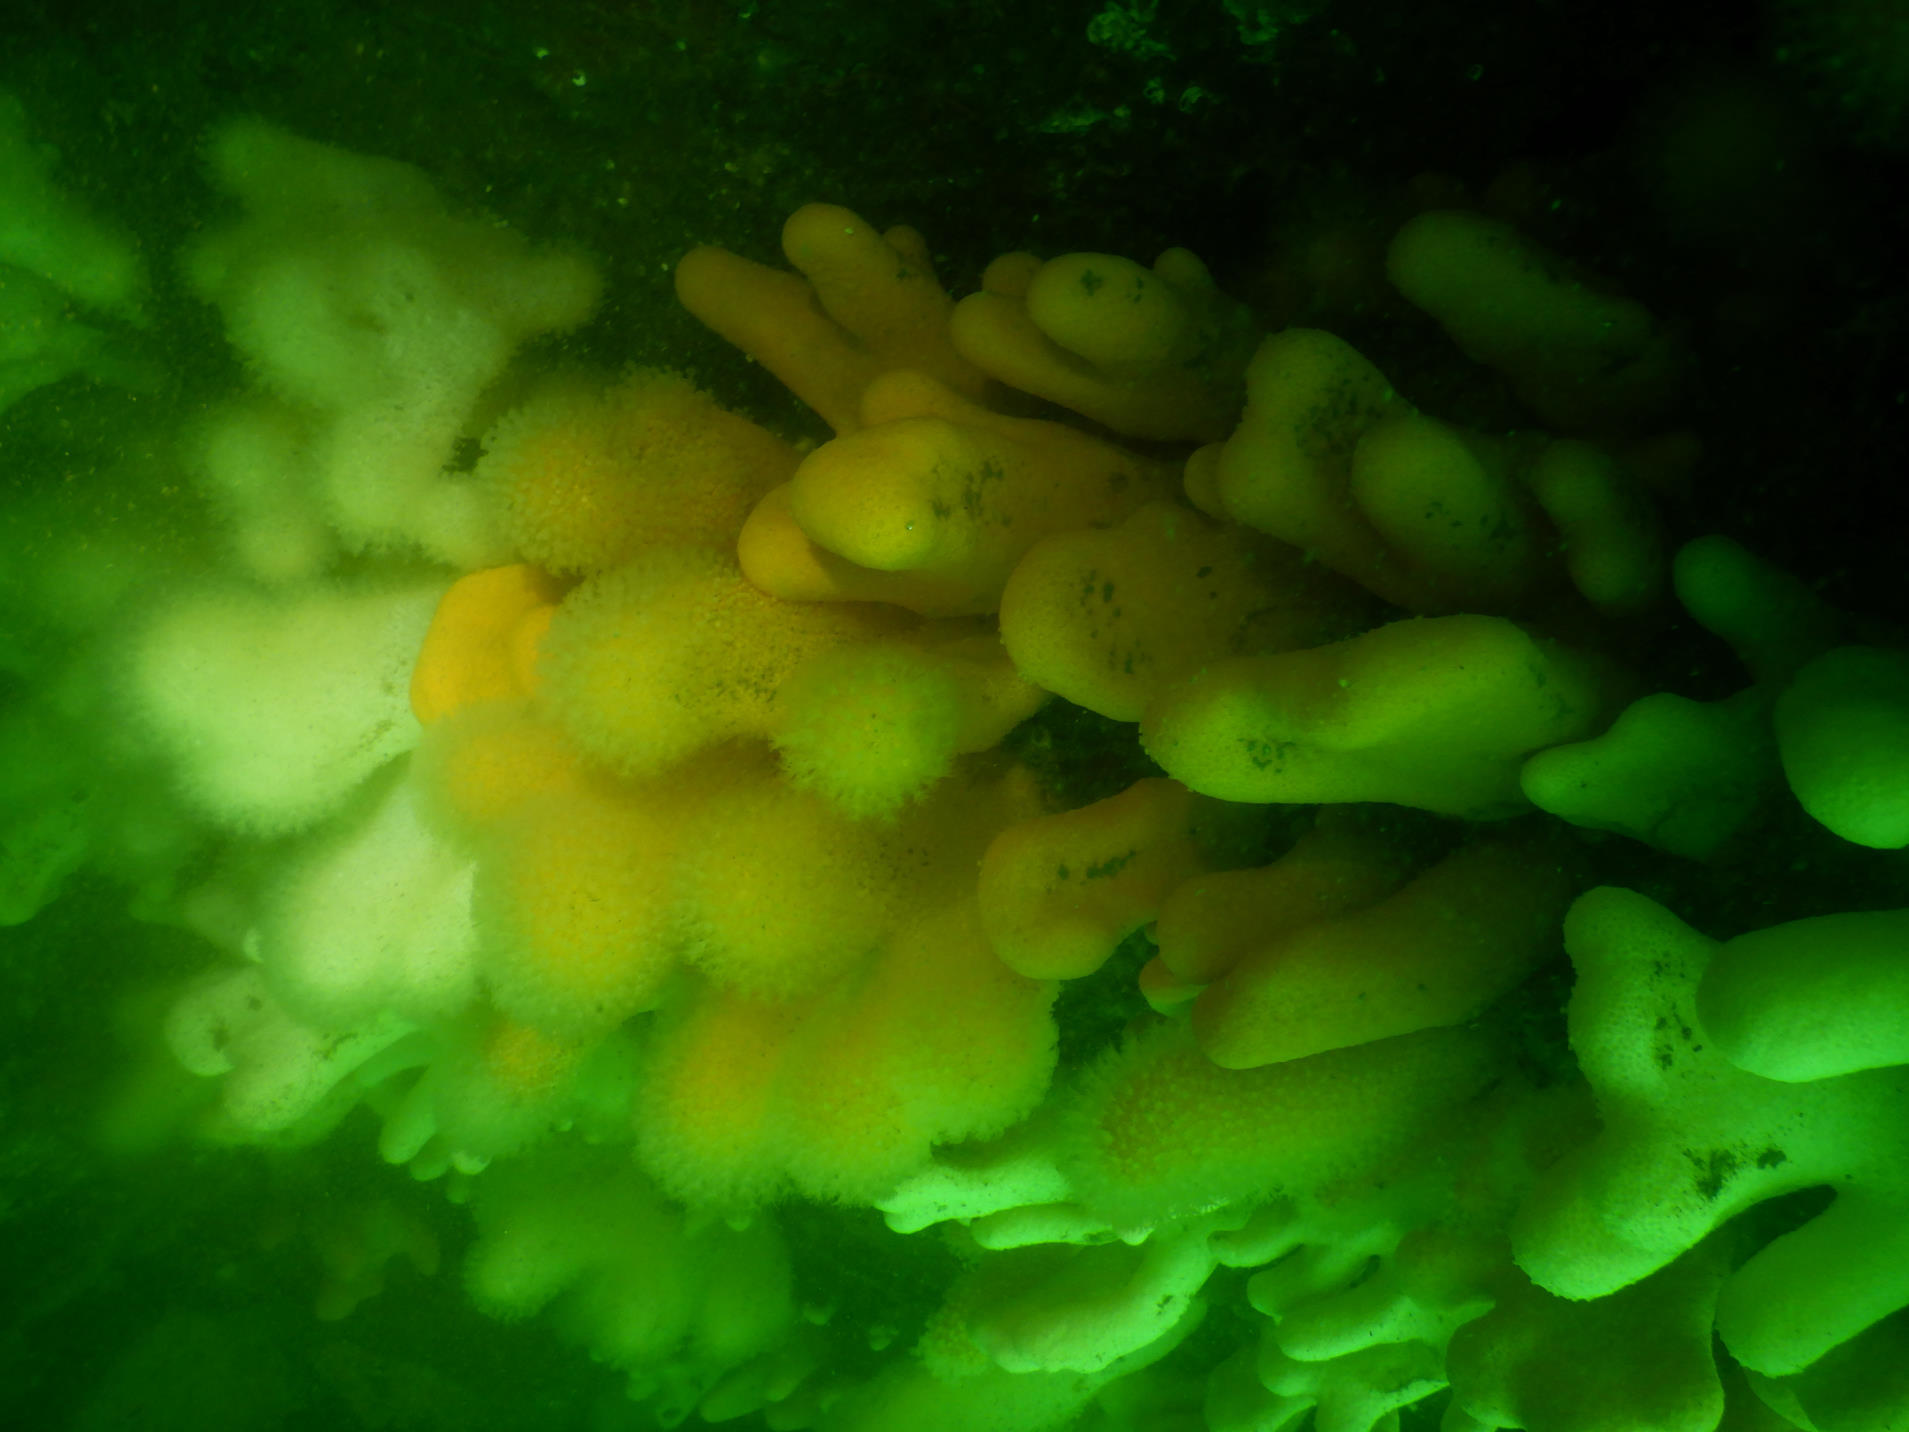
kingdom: Animalia
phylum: Cnidaria
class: Anthozoa
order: Malacalcyonacea
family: Alcyoniidae
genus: Alcyonium
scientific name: Alcyonium digitatum
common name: Dead man's fingers
